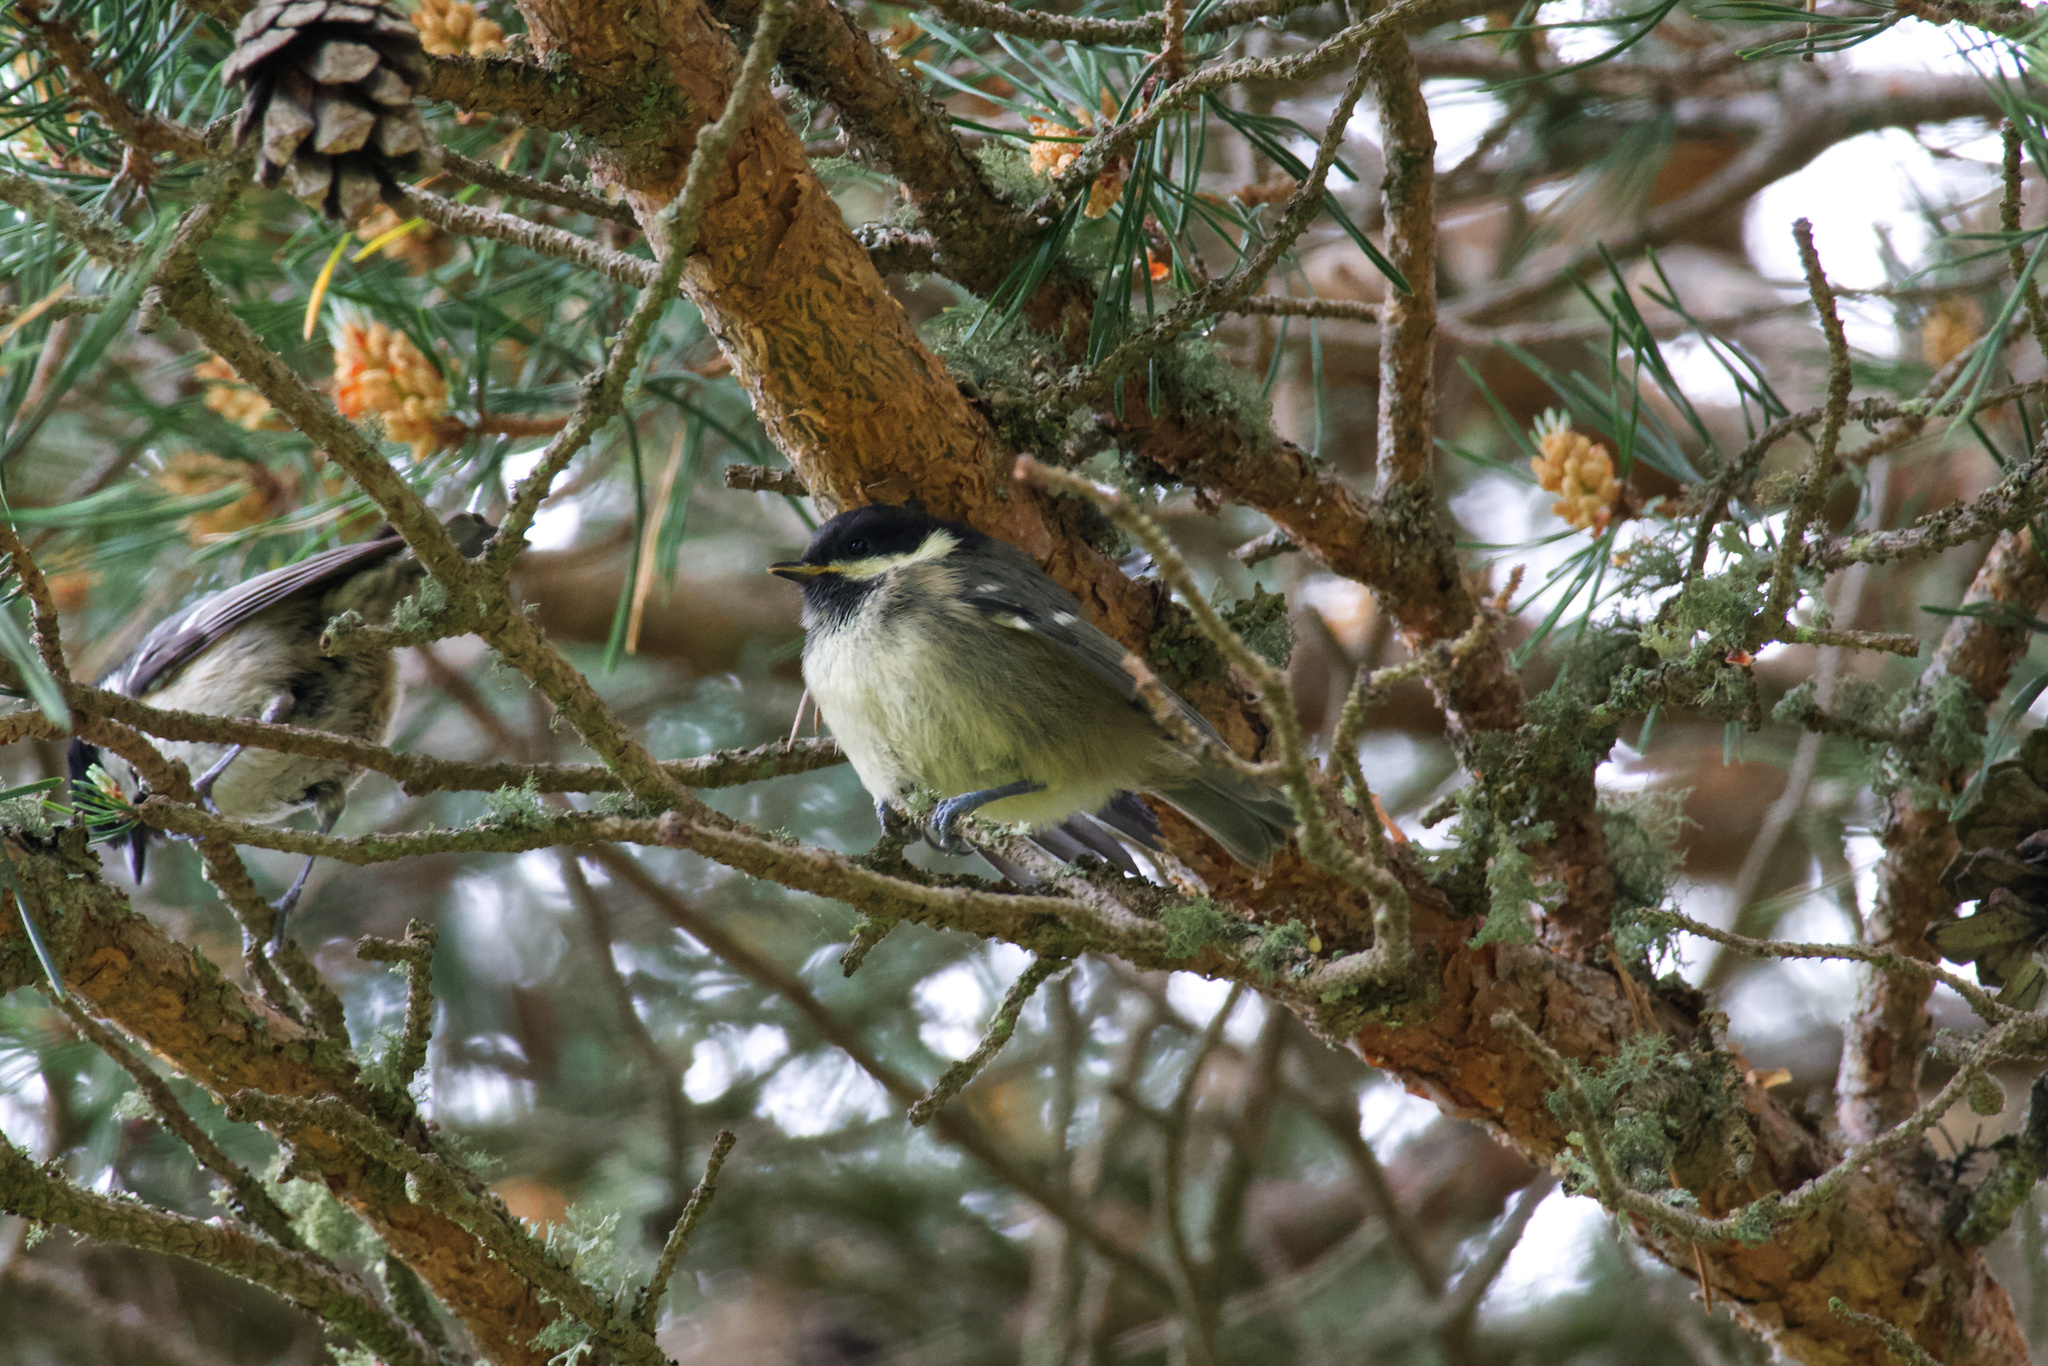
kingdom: Animalia
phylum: Chordata
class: Aves
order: Passeriformes
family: Paridae
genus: Periparus
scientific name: Periparus ater
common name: Coal tit
